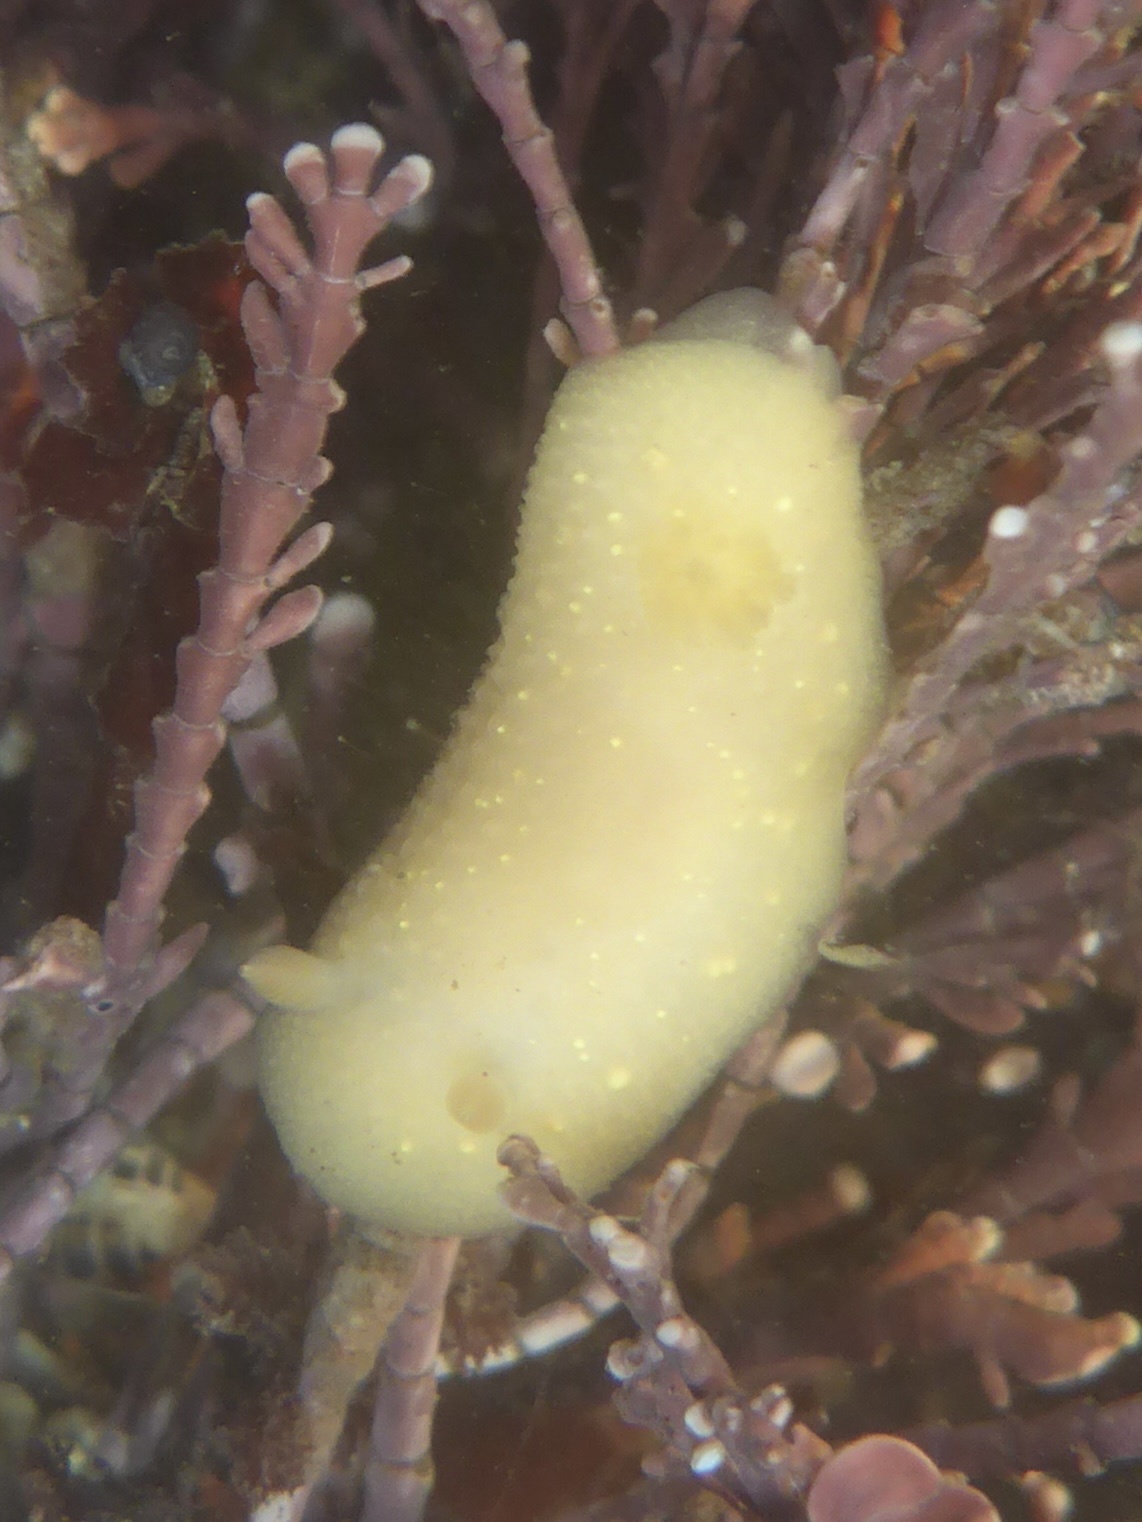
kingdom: Animalia
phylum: Mollusca
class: Gastropoda
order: Nudibranchia
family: Cadlinidae
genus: Cadlina
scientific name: Cadlina modesta
